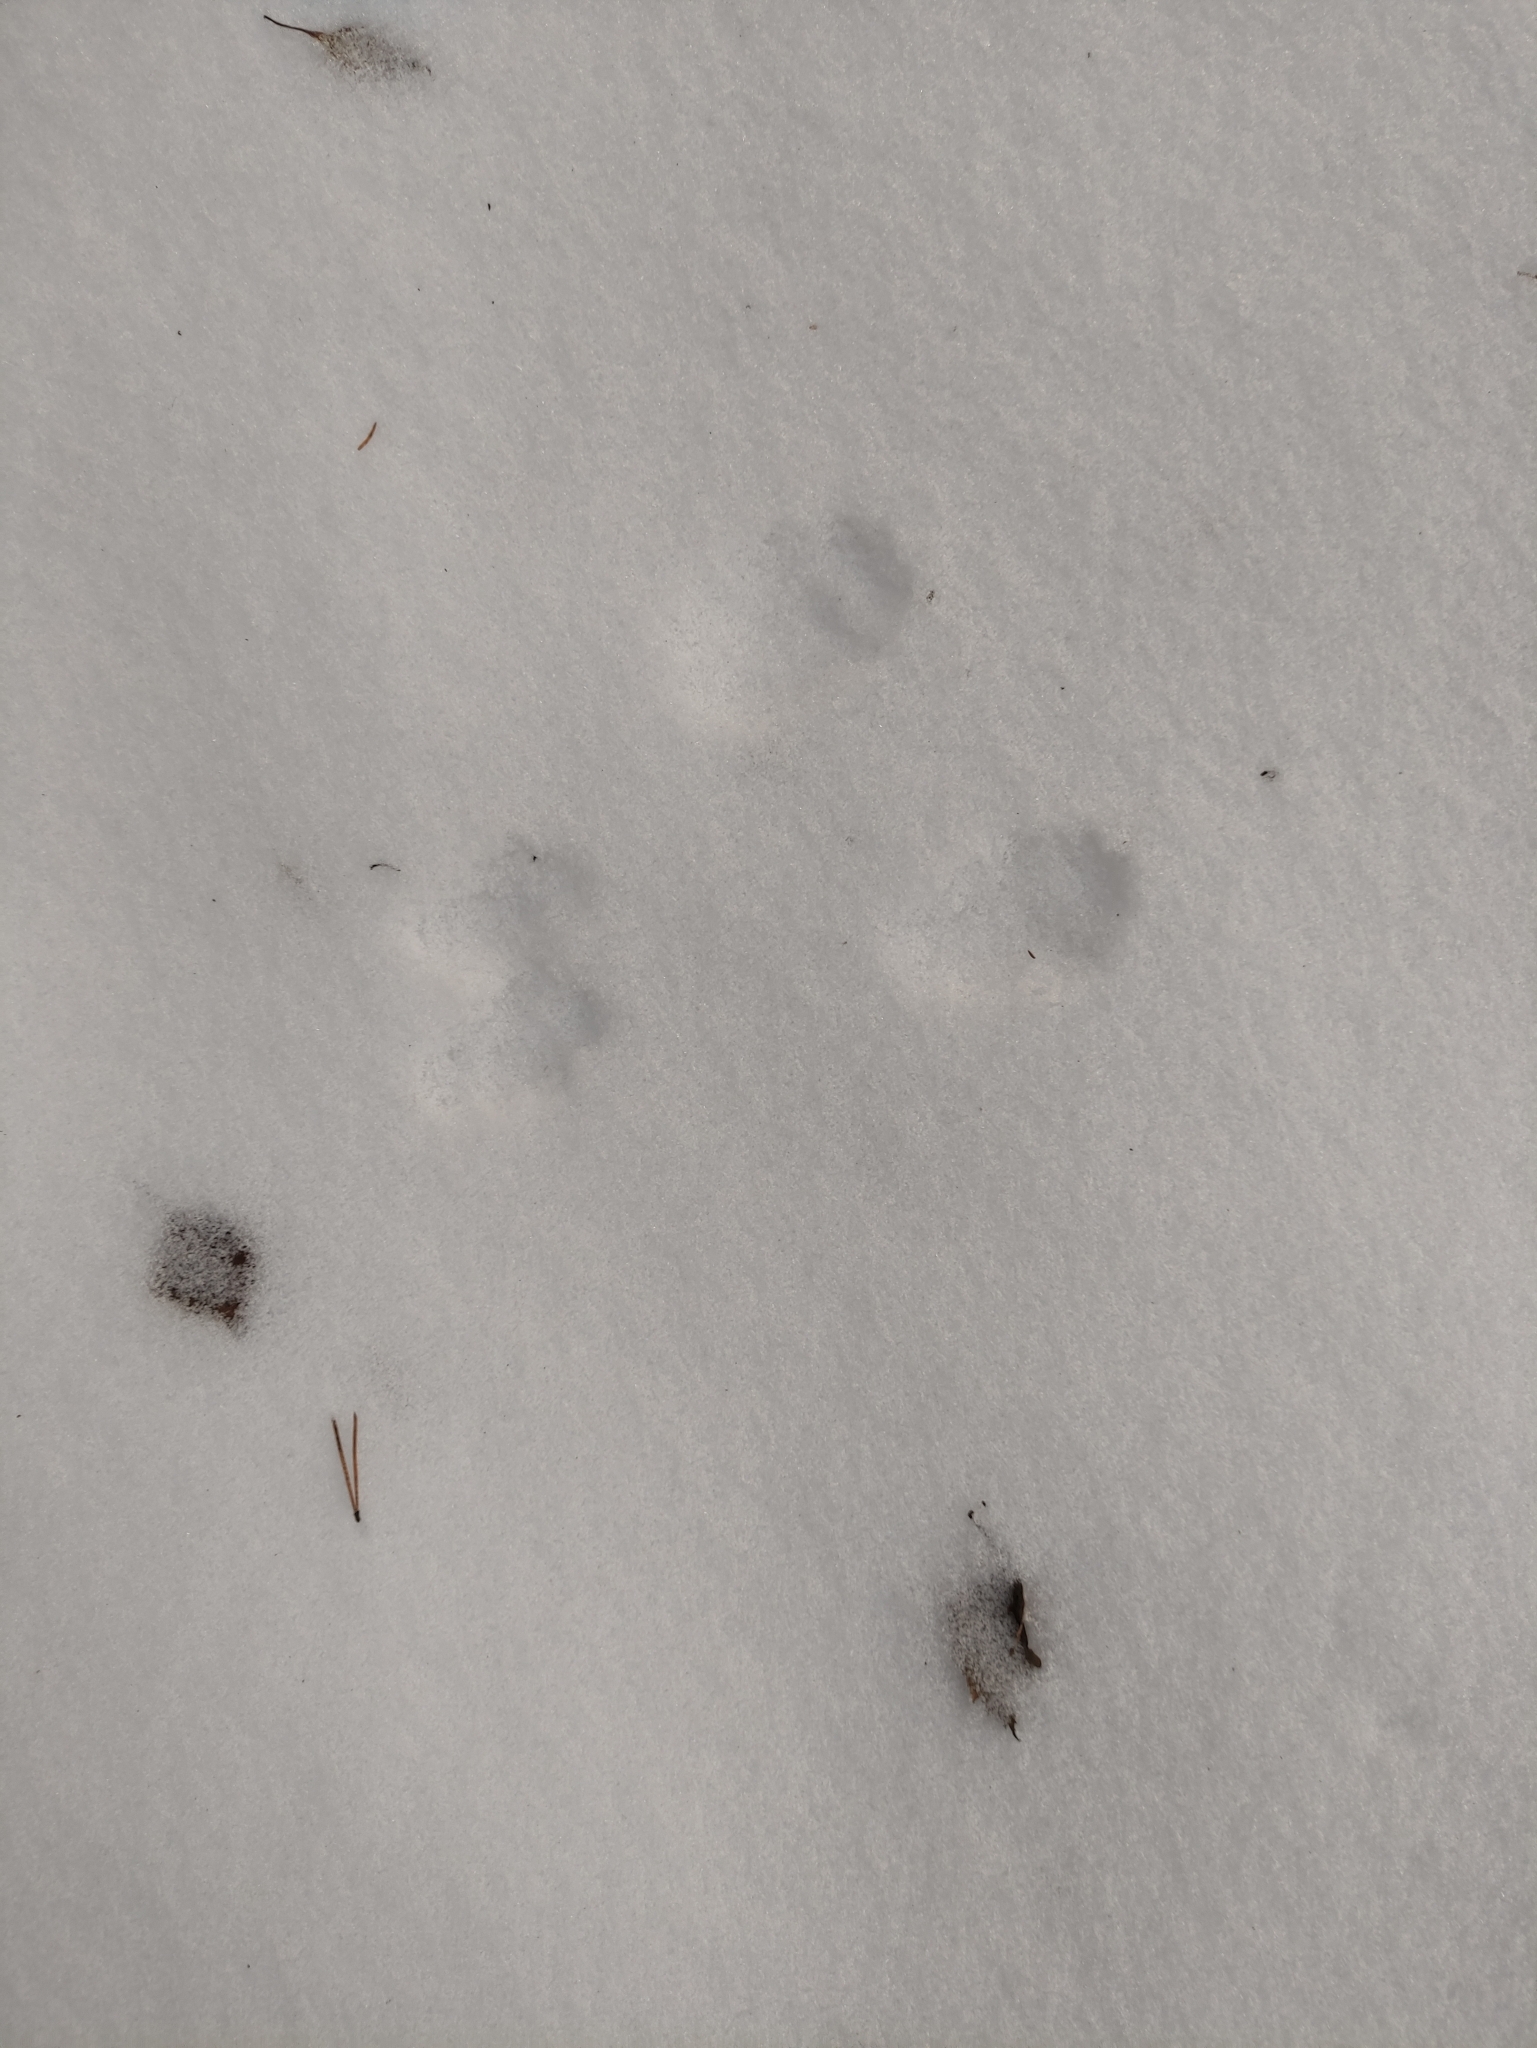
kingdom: Animalia
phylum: Chordata
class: Mammalia
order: Rodentia
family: Sciuridae
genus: Sciurus
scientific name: Sciurus vulgaris
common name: Eurasian red squirrel
